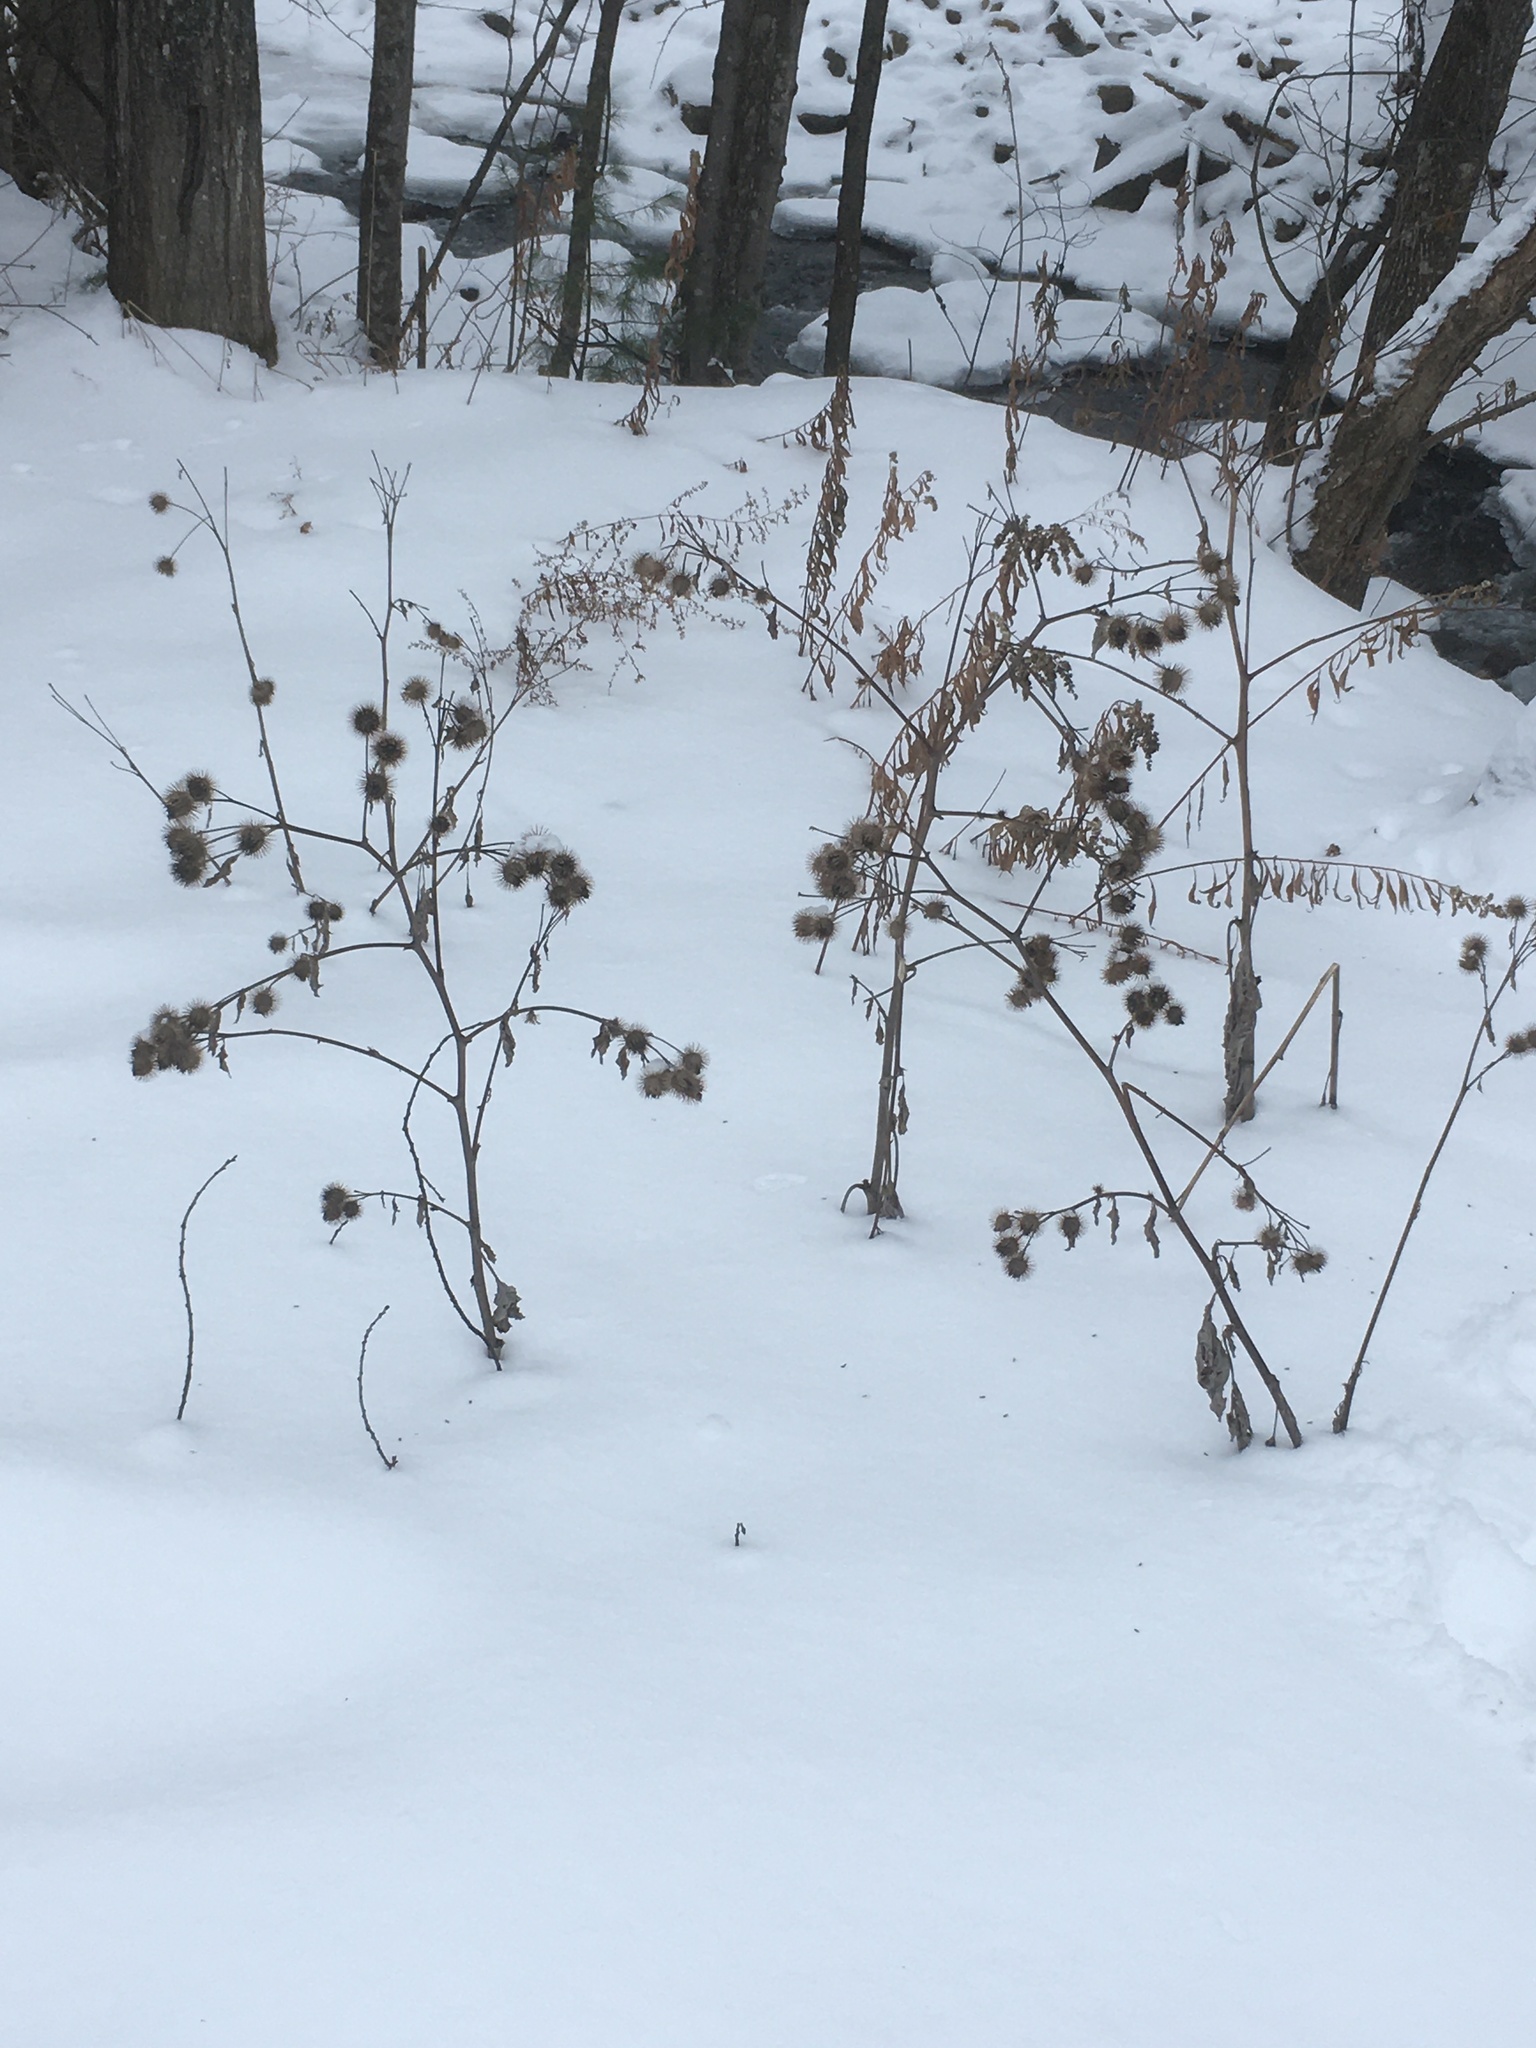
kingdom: Plantae
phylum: Tracheophyta
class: Magnoliopsida
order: Asterales
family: Asteraceae
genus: Arctium
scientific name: Arctium lappa
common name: Greater burdock
